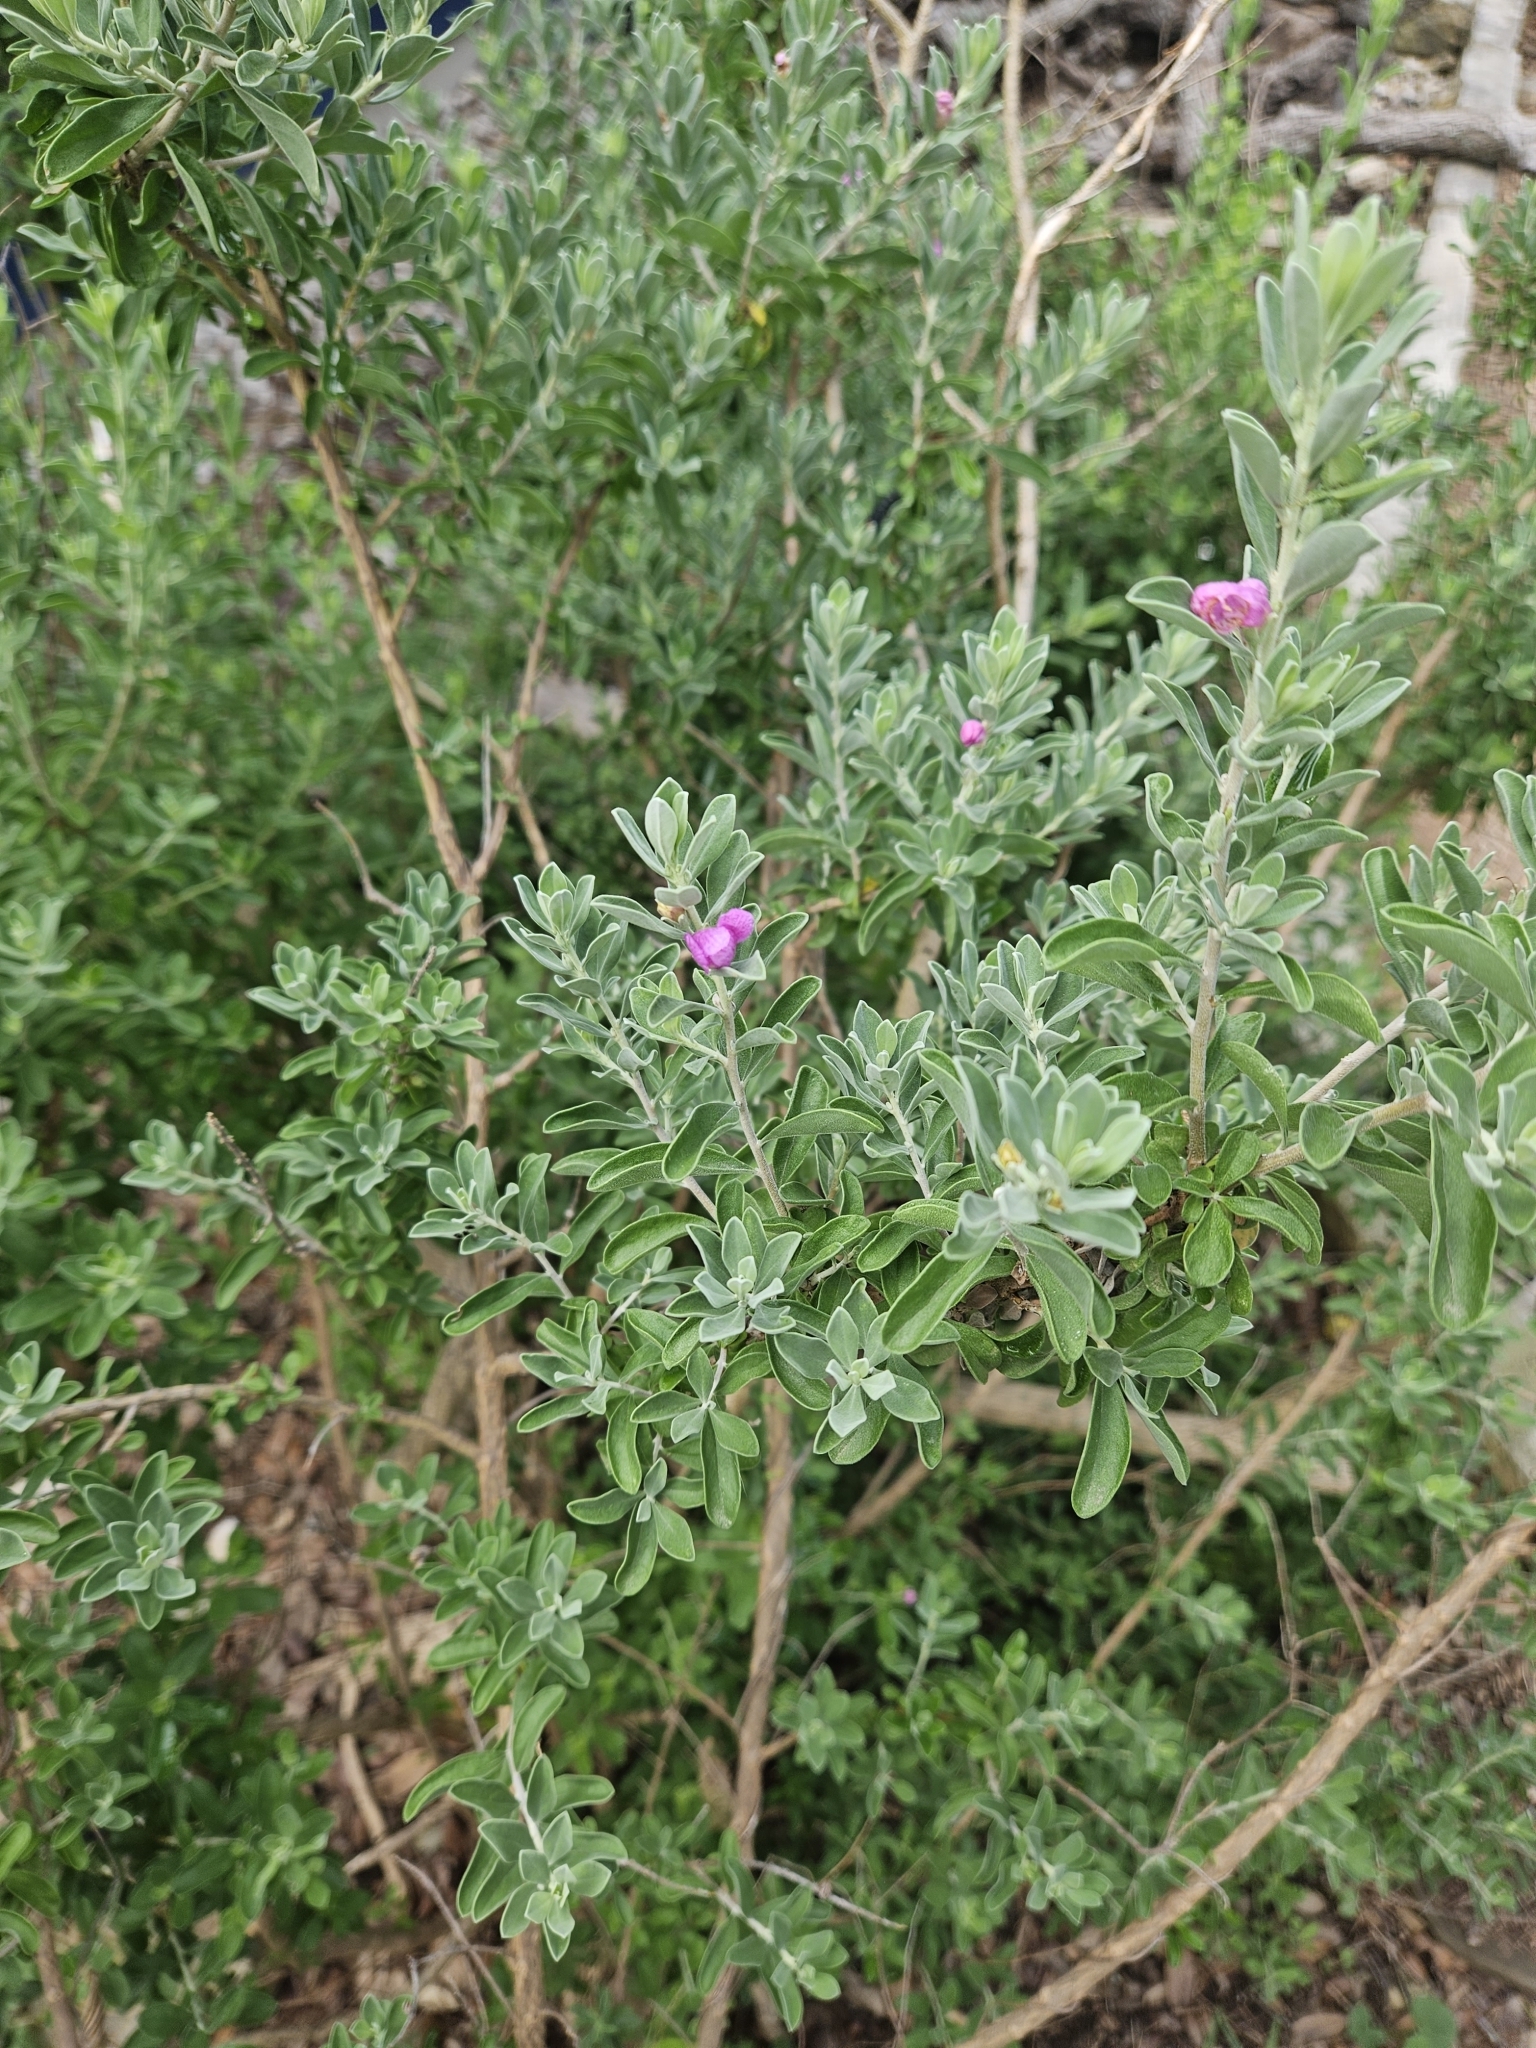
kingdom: Plantae
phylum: Tracheophyta
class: Magnoliopsida
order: Lamiales
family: Scrophulariaceae
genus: Leucophyllum
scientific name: Leucophyllum frutescens
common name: Texas silverleaf
